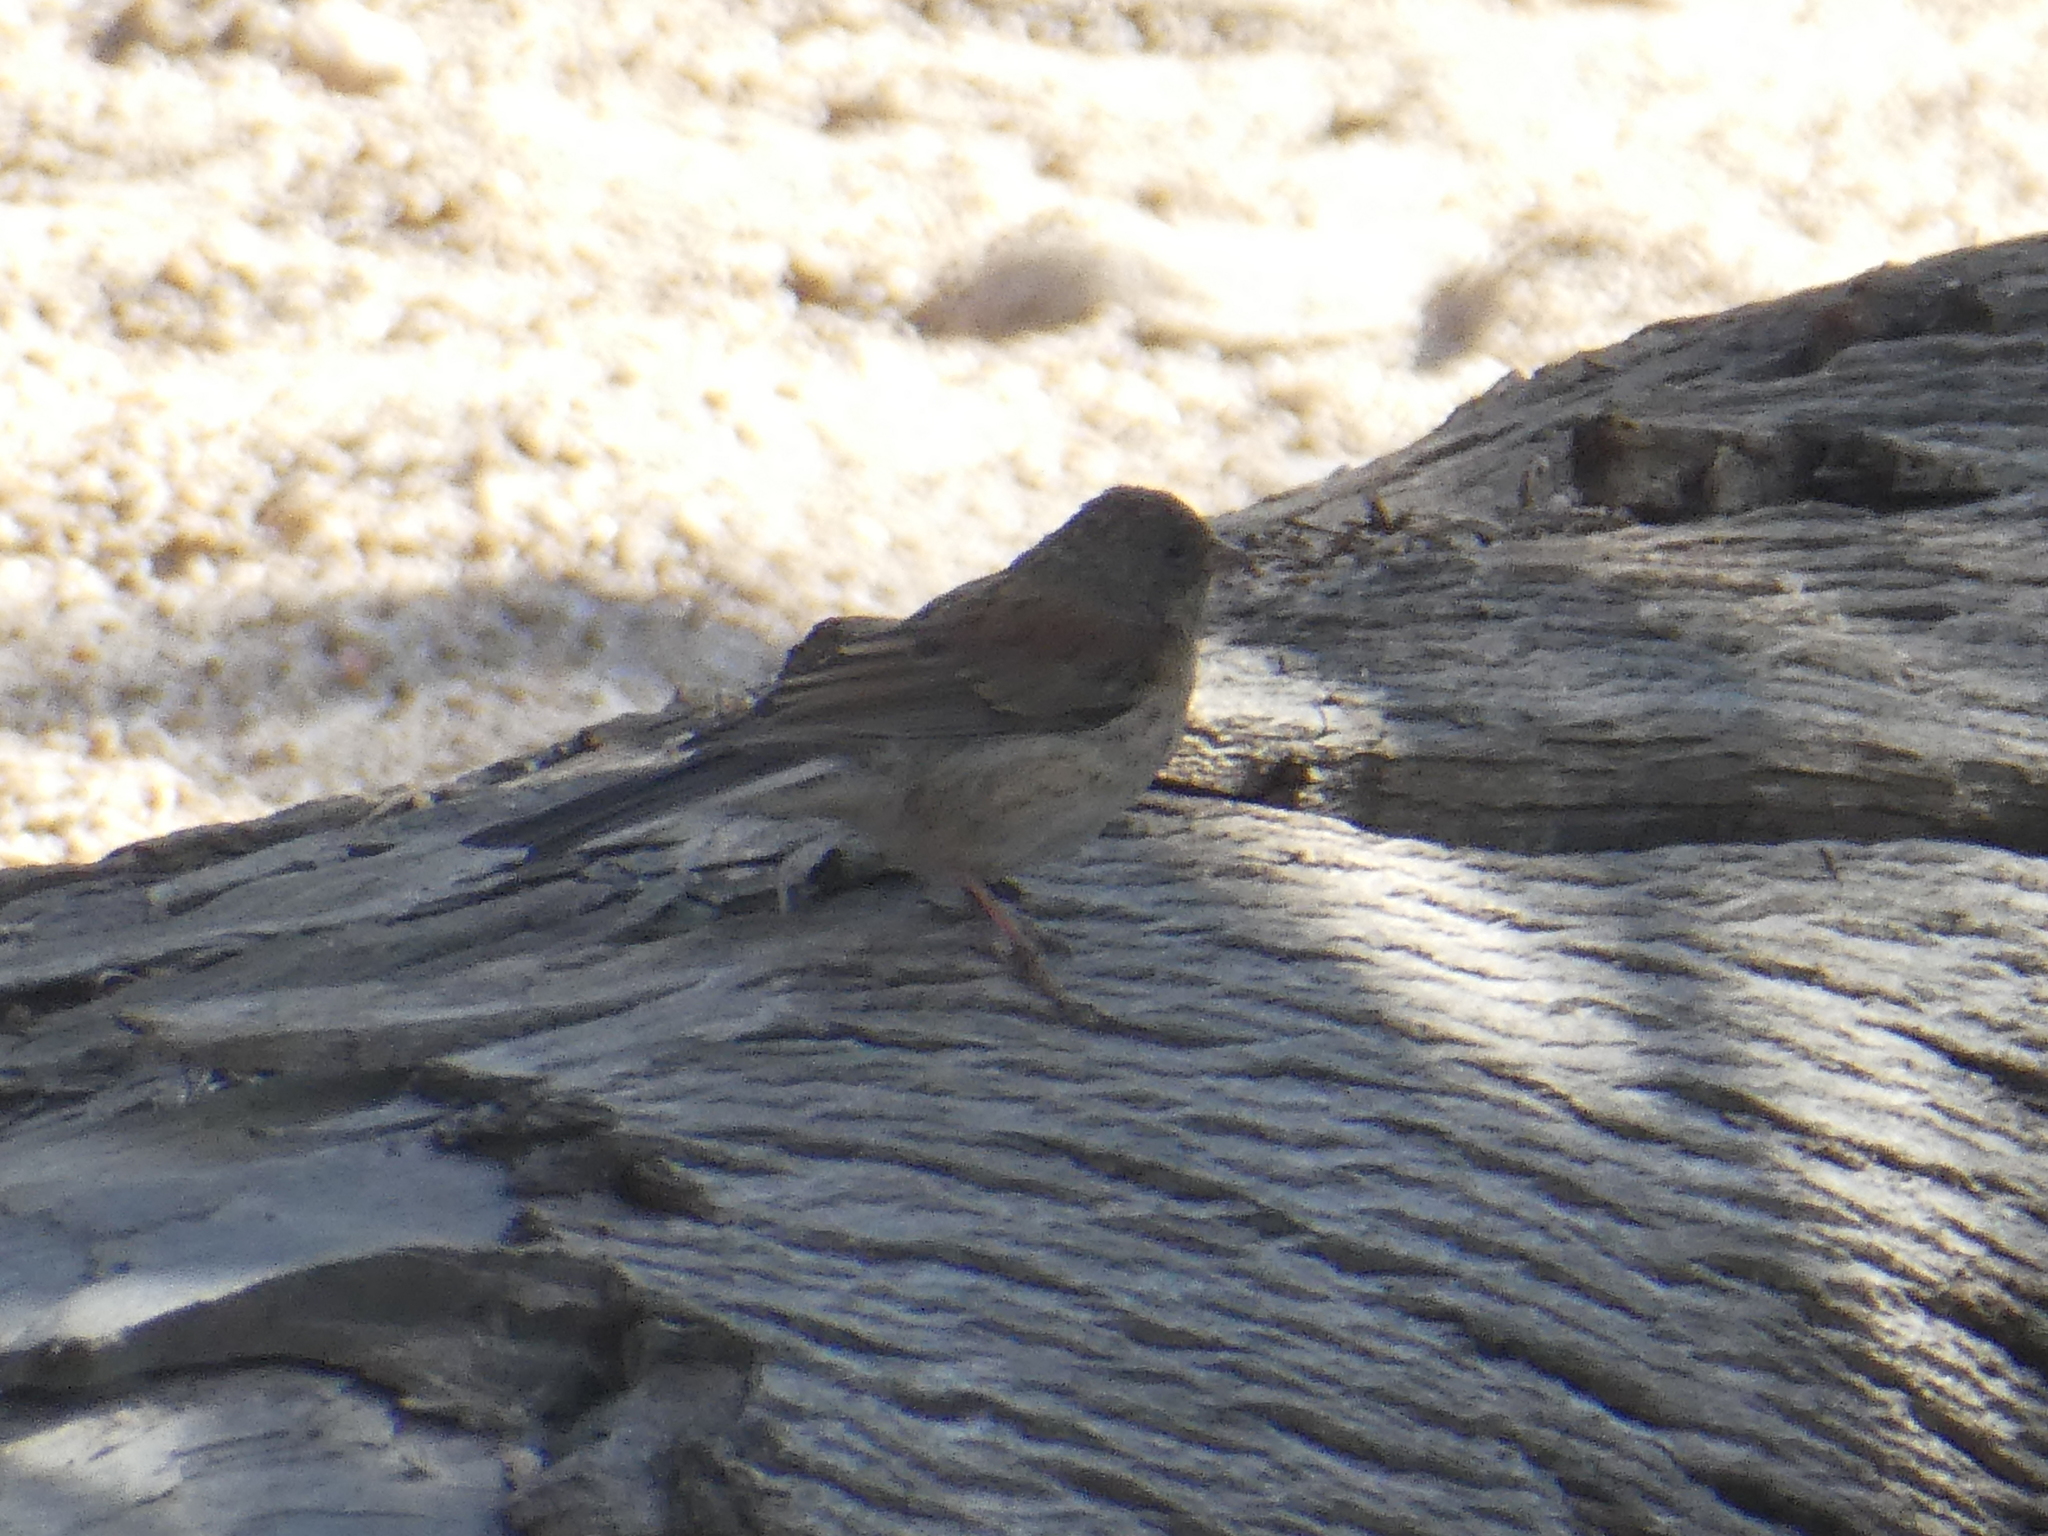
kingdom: Animalia
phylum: Chordata
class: Aves
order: Passeriformes
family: Passerellidae
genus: Junco
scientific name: Junco hyemalis
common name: Dark-eyed junco
